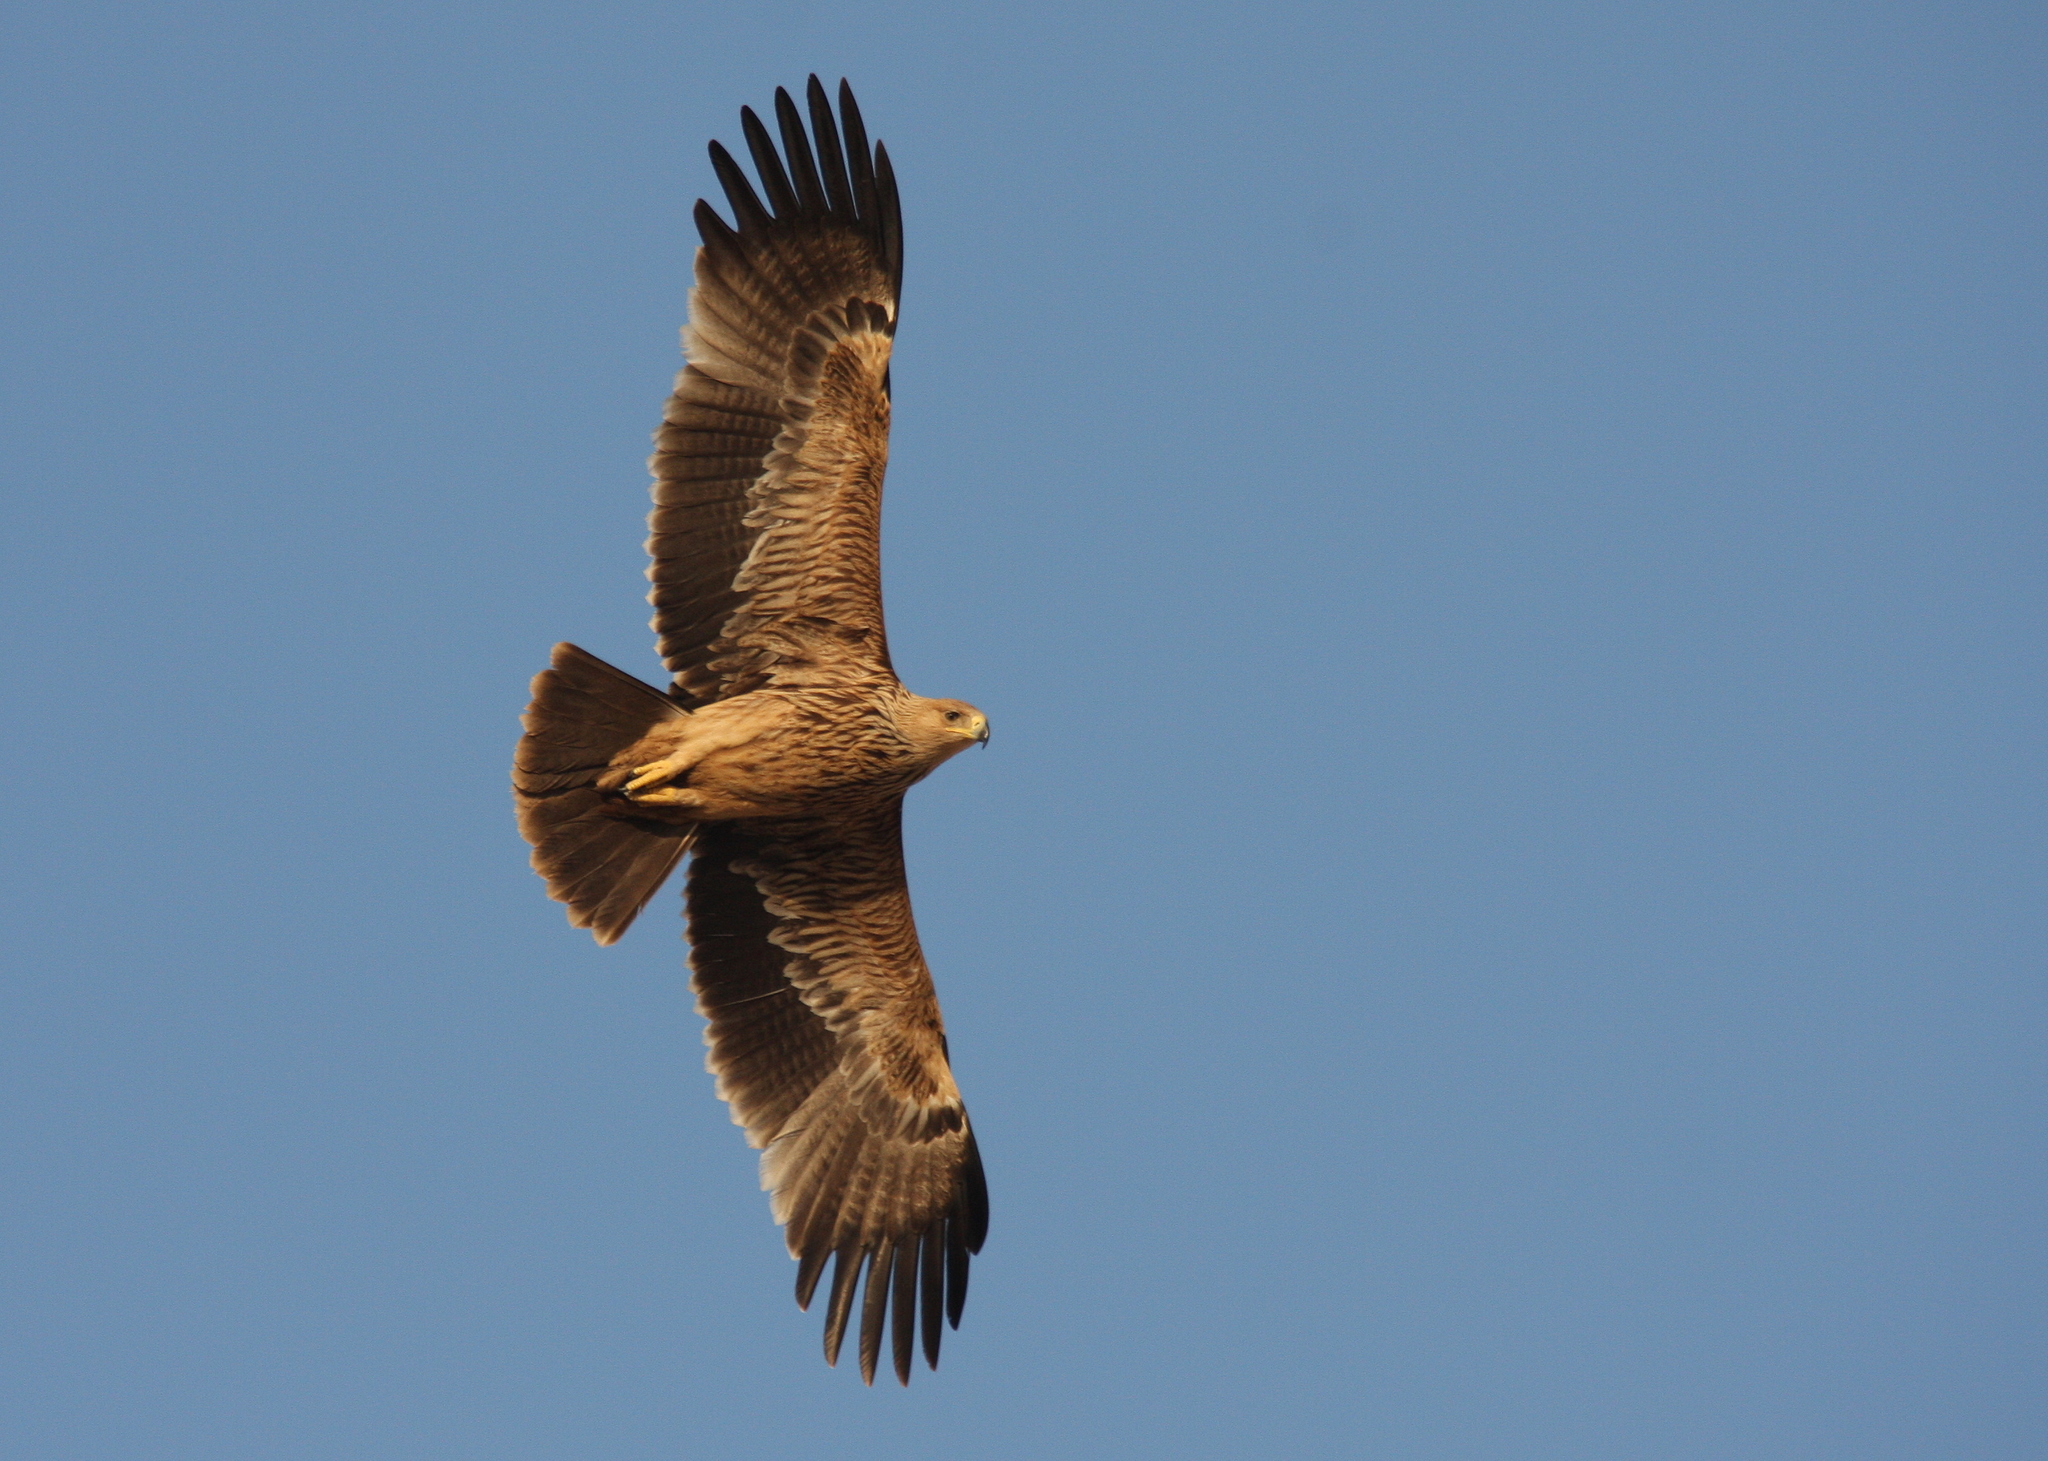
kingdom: Animalia
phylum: Chordata
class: Aves
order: Accipitriformes
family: Accipitridae
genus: Aquila
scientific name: Aquila heliaca
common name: Eastern imperial eagle
